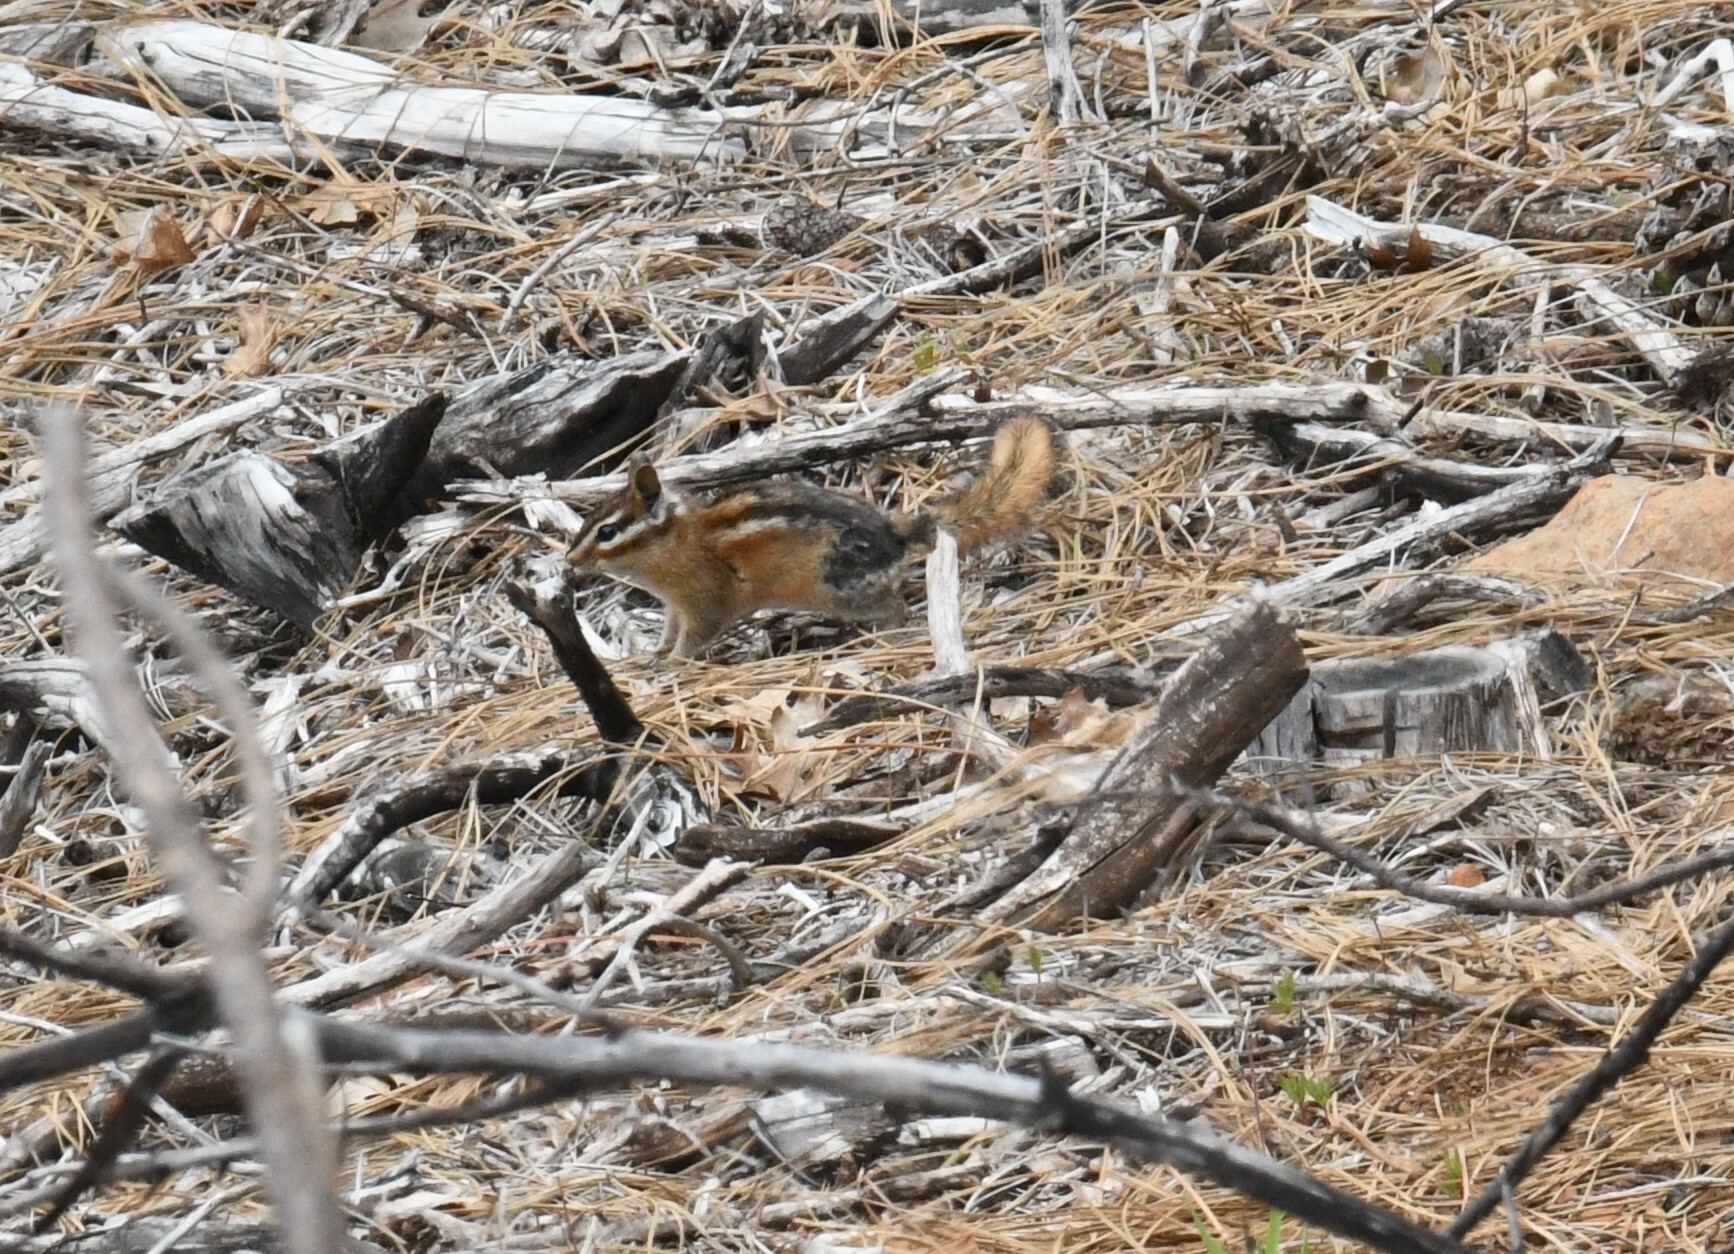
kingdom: Animalia
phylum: Chordata
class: Mammalia
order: Rodentia
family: Sciuridae
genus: Tamias
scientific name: Tamias sonomae
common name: Sonoma chipmunk
